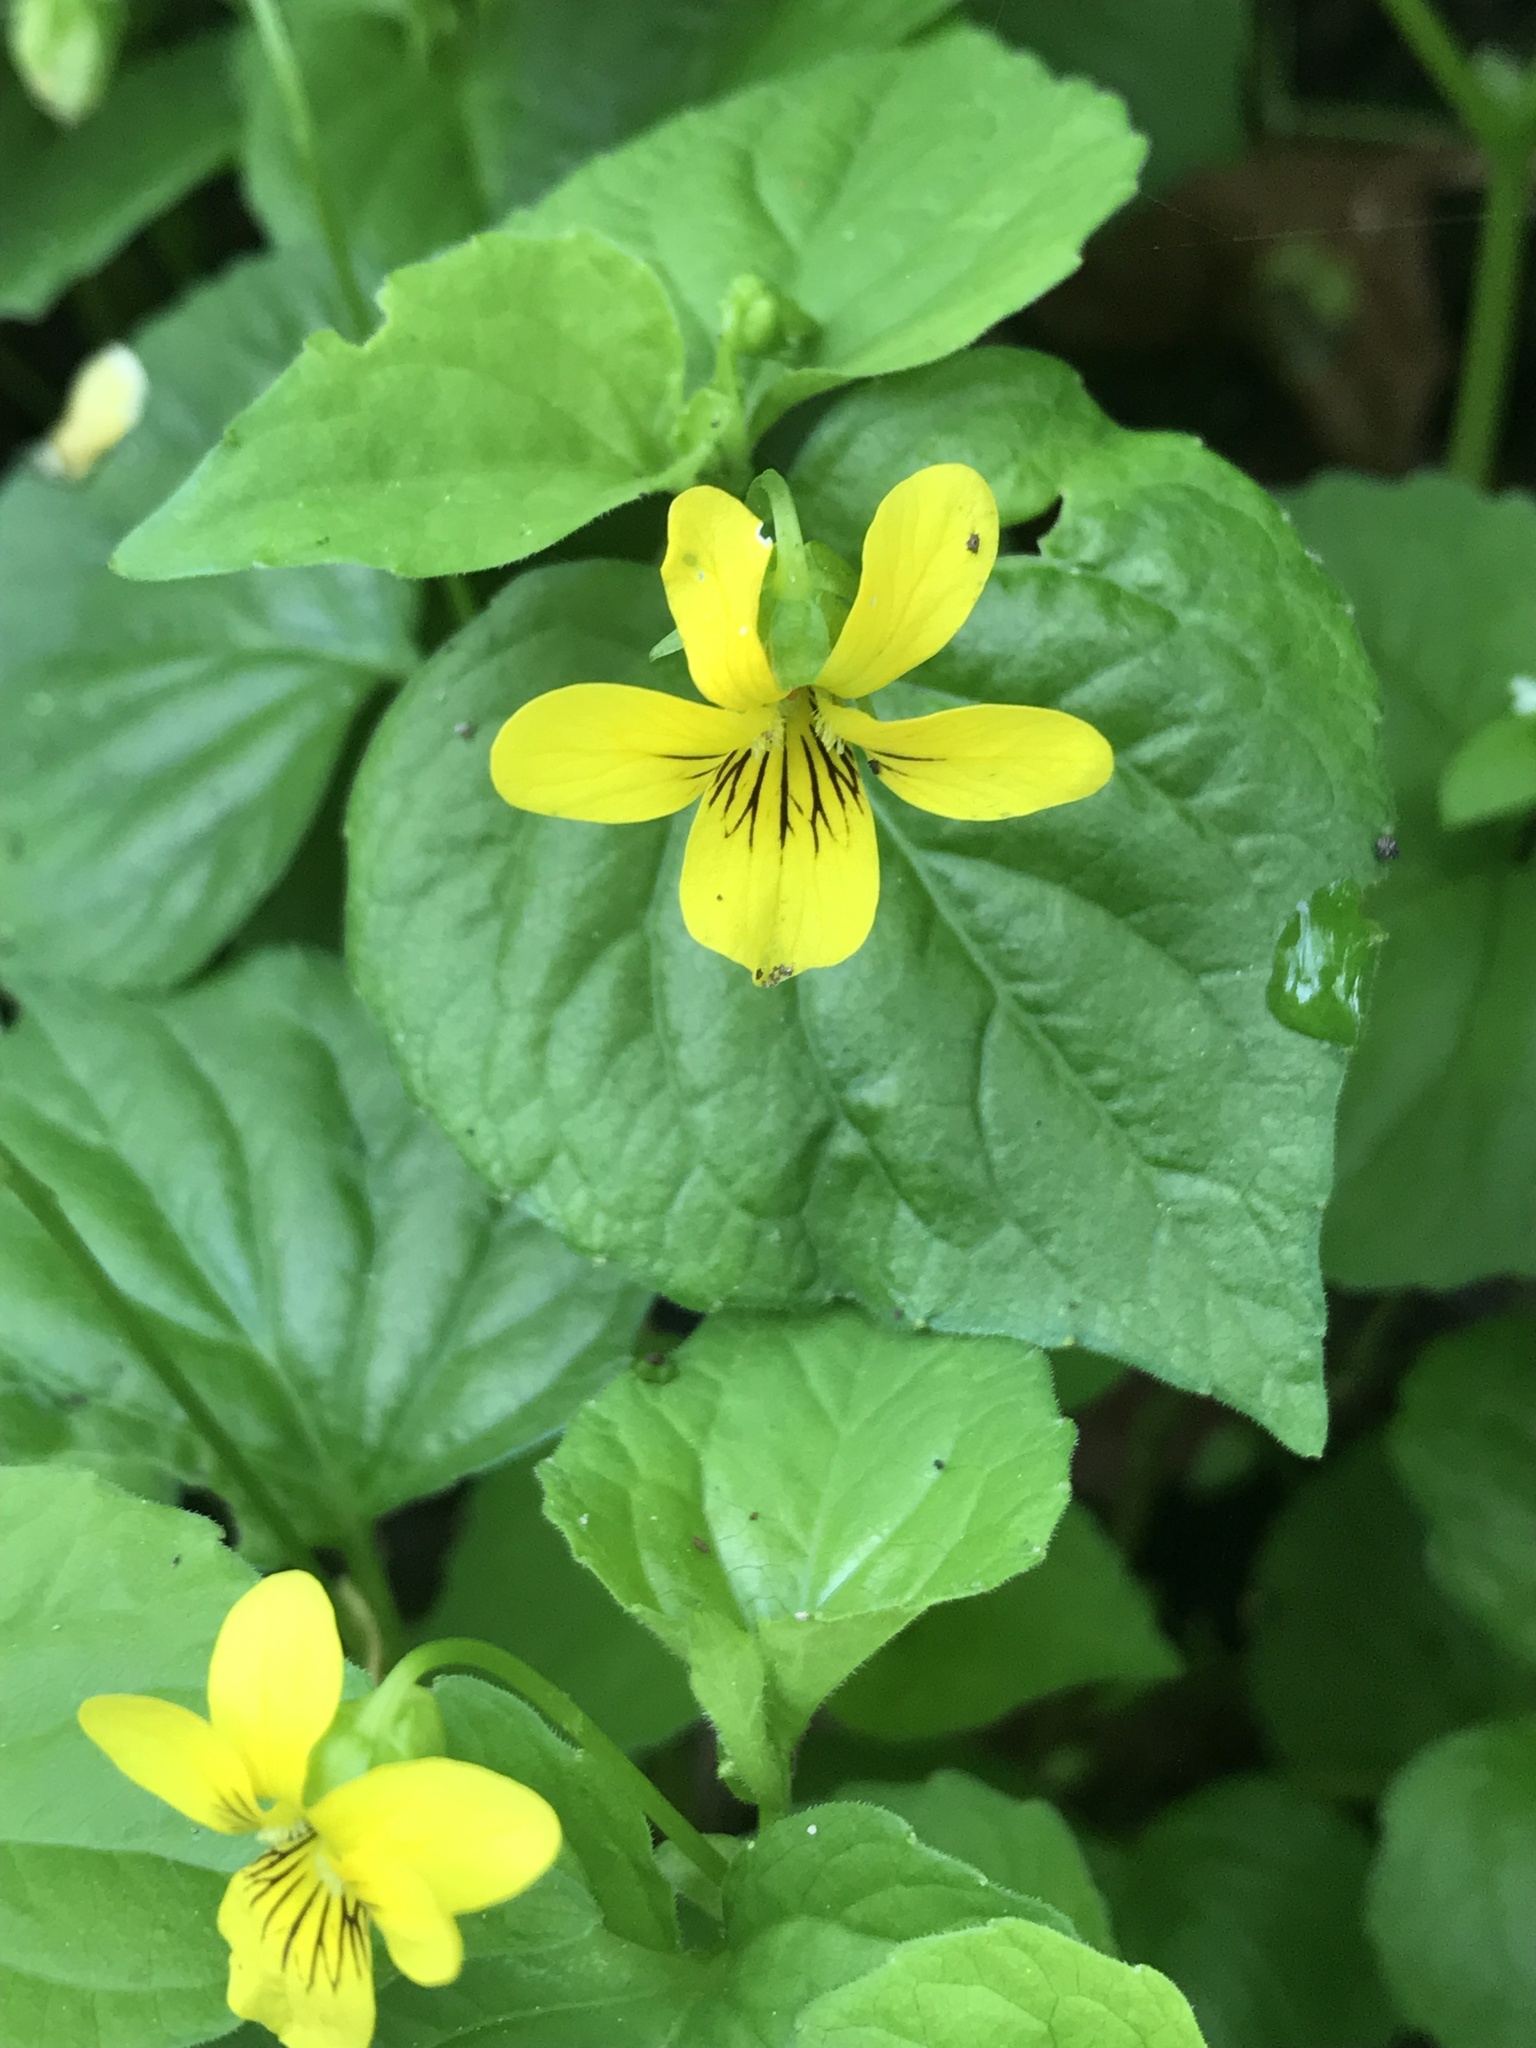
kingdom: Plantae
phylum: Tracheophyta
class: Magnoliopsida
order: Malpighiales
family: Violaceae
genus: Viola
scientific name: Viola glabella
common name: Stream violet
